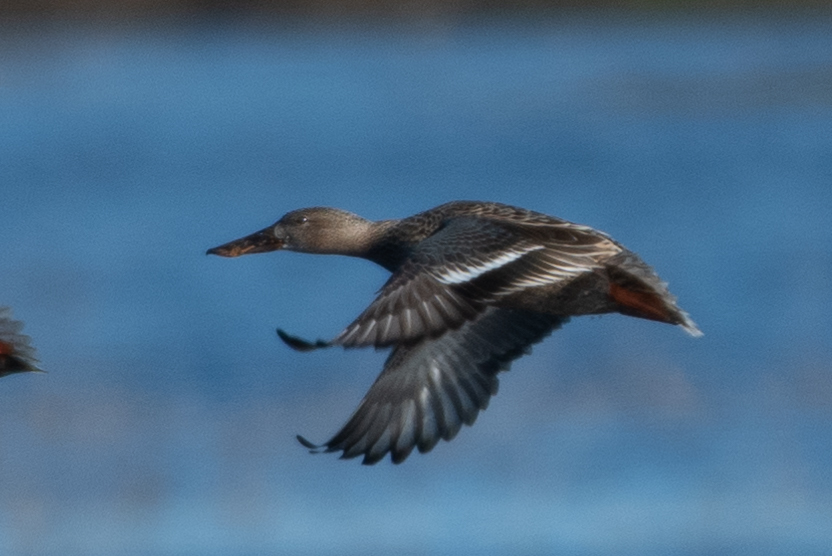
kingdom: Animalia
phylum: Chordata
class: Aves
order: Anseriformes
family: Anatidae
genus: Spatula
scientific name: Spatula clypeata
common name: Northern shoveler
